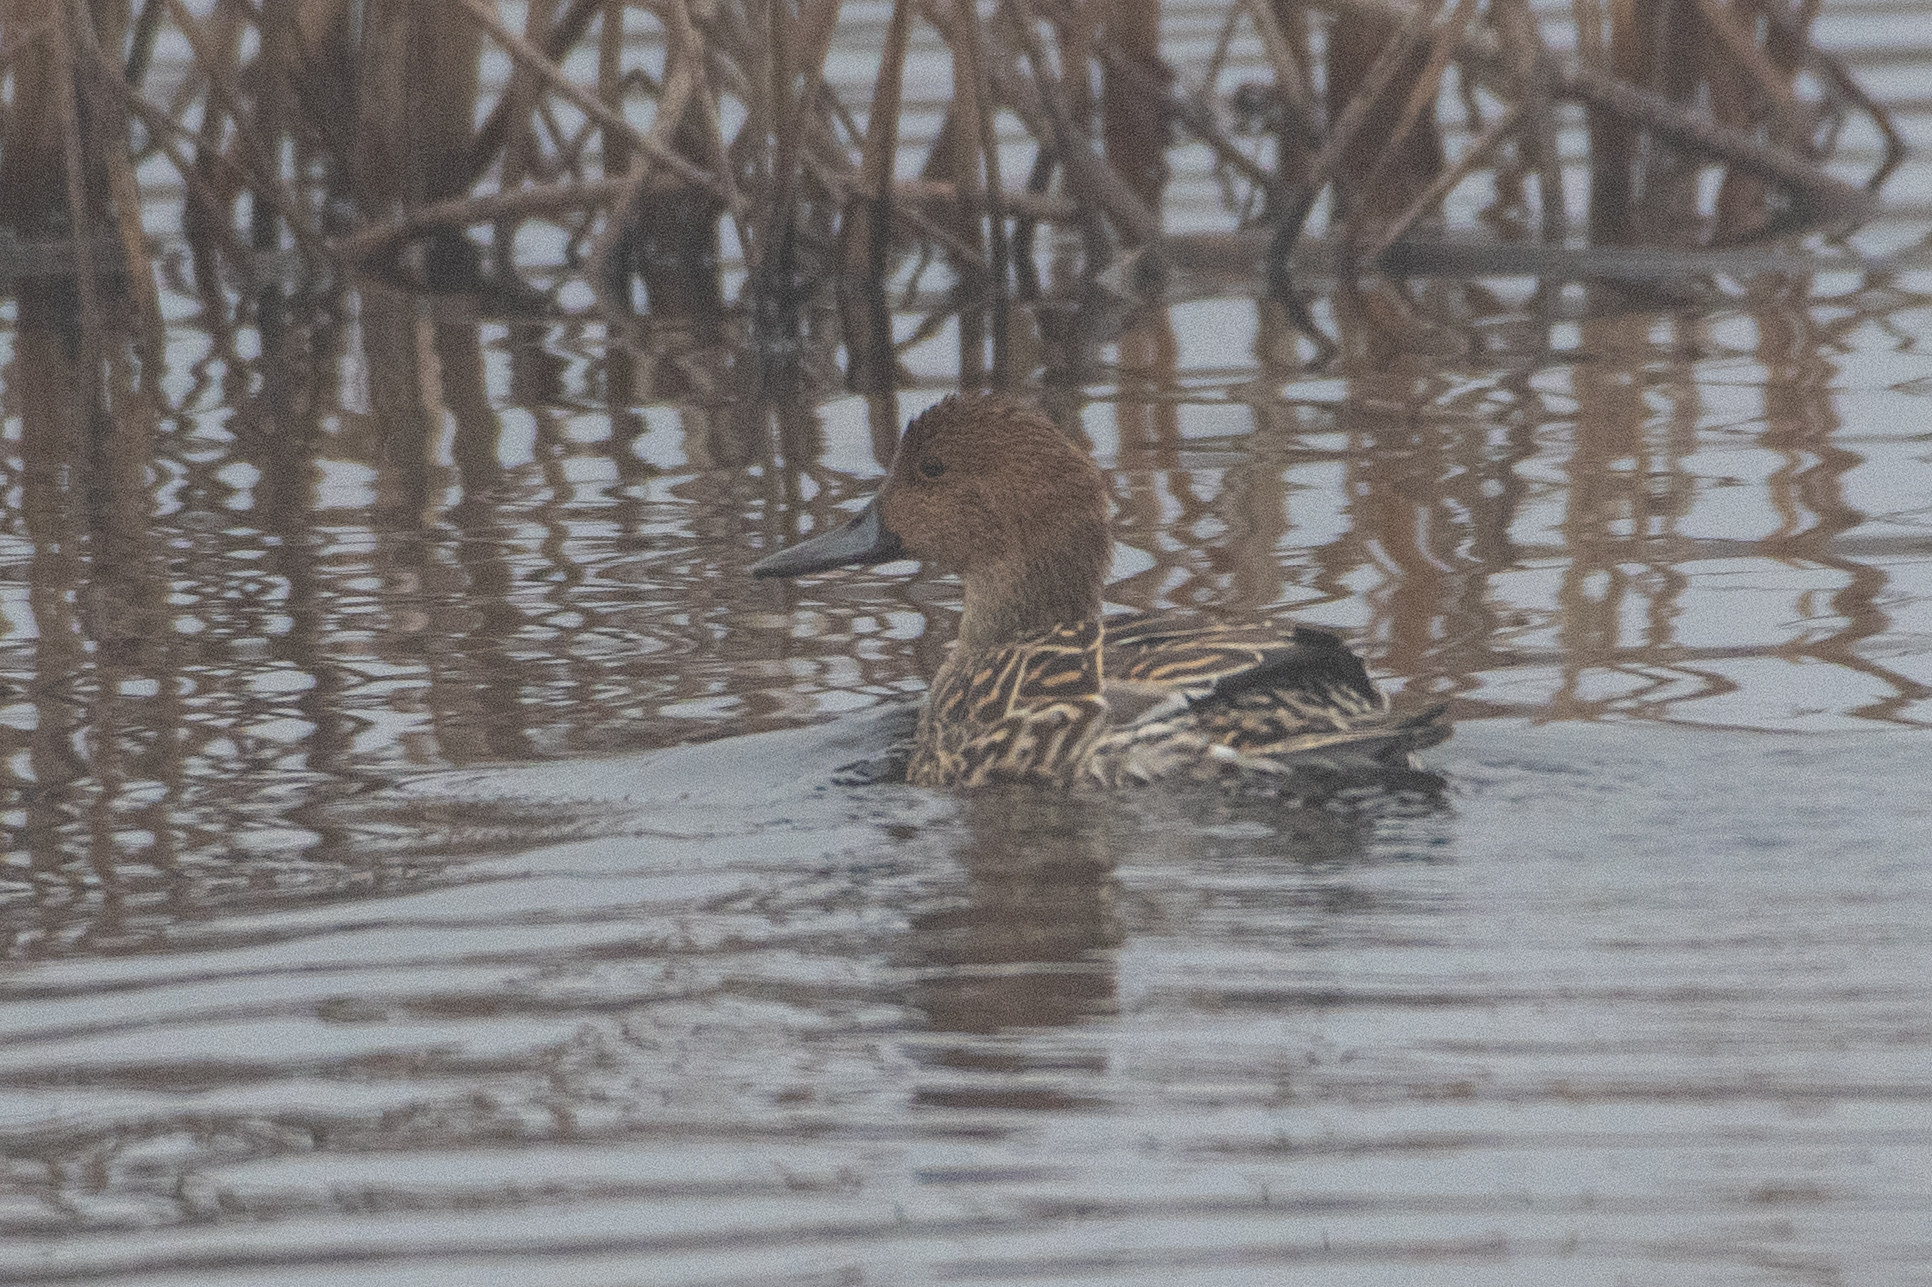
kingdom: Animalia
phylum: Chordata
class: Aves
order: Anseriformes
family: Anatidae
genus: Anas
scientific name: Anas acuta
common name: Northern pintail
